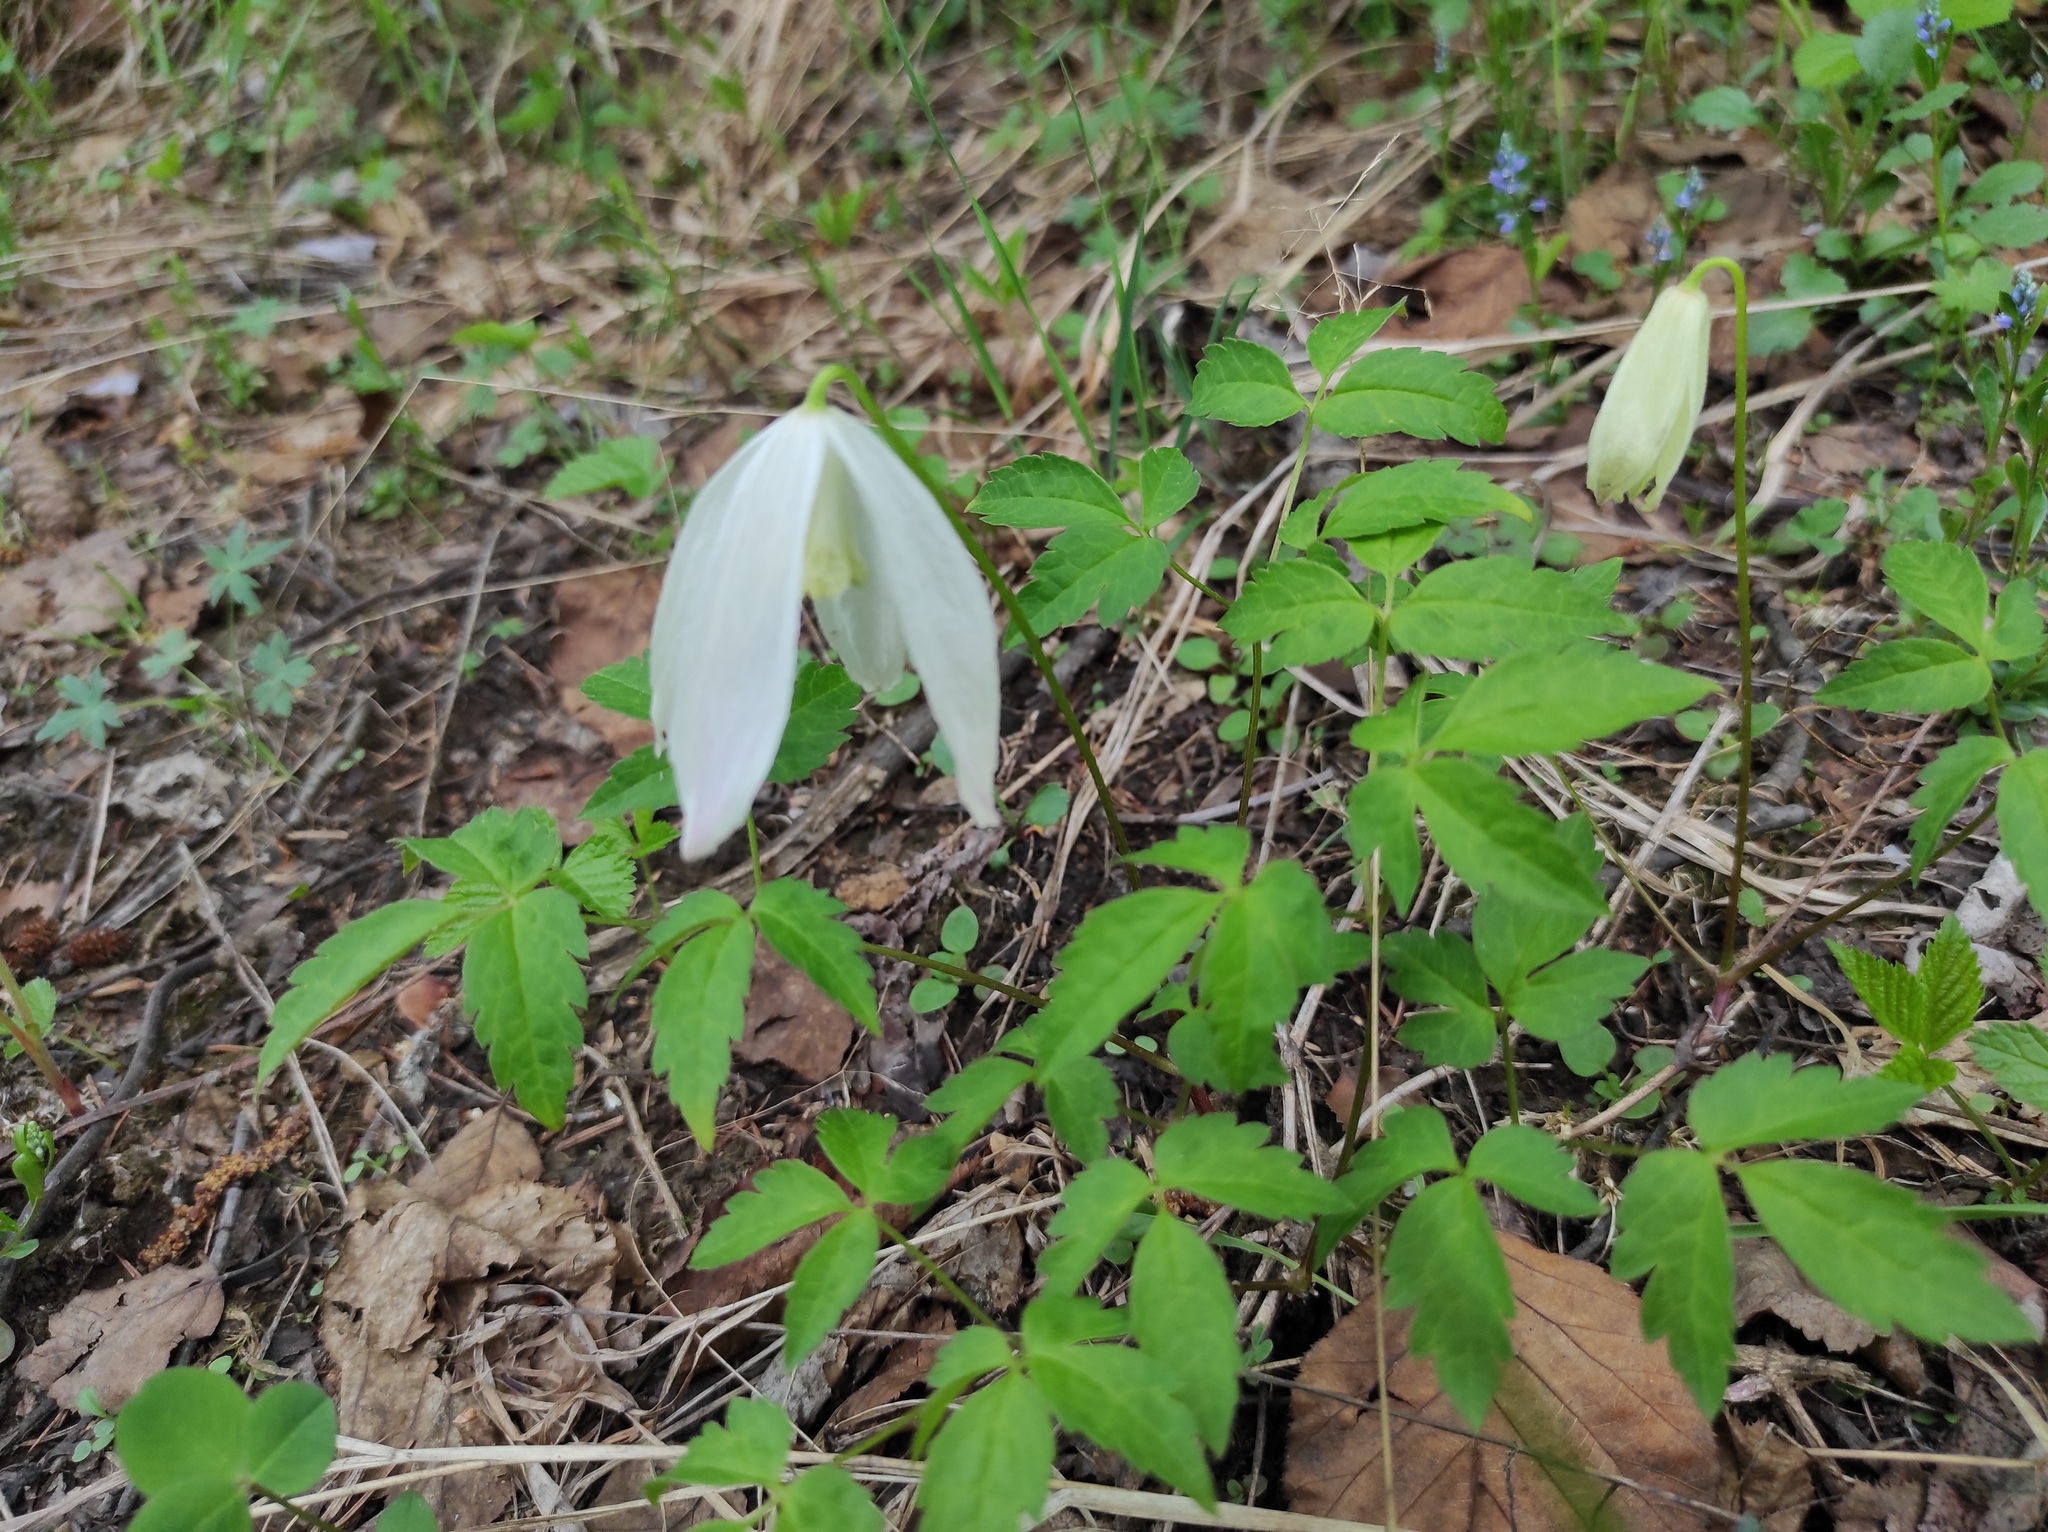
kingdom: Plantae
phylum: Tracheophyta
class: Magnoliopsida
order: Ranunculales
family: Ranunculaceae
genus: Clematis
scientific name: Clematis sibirica
